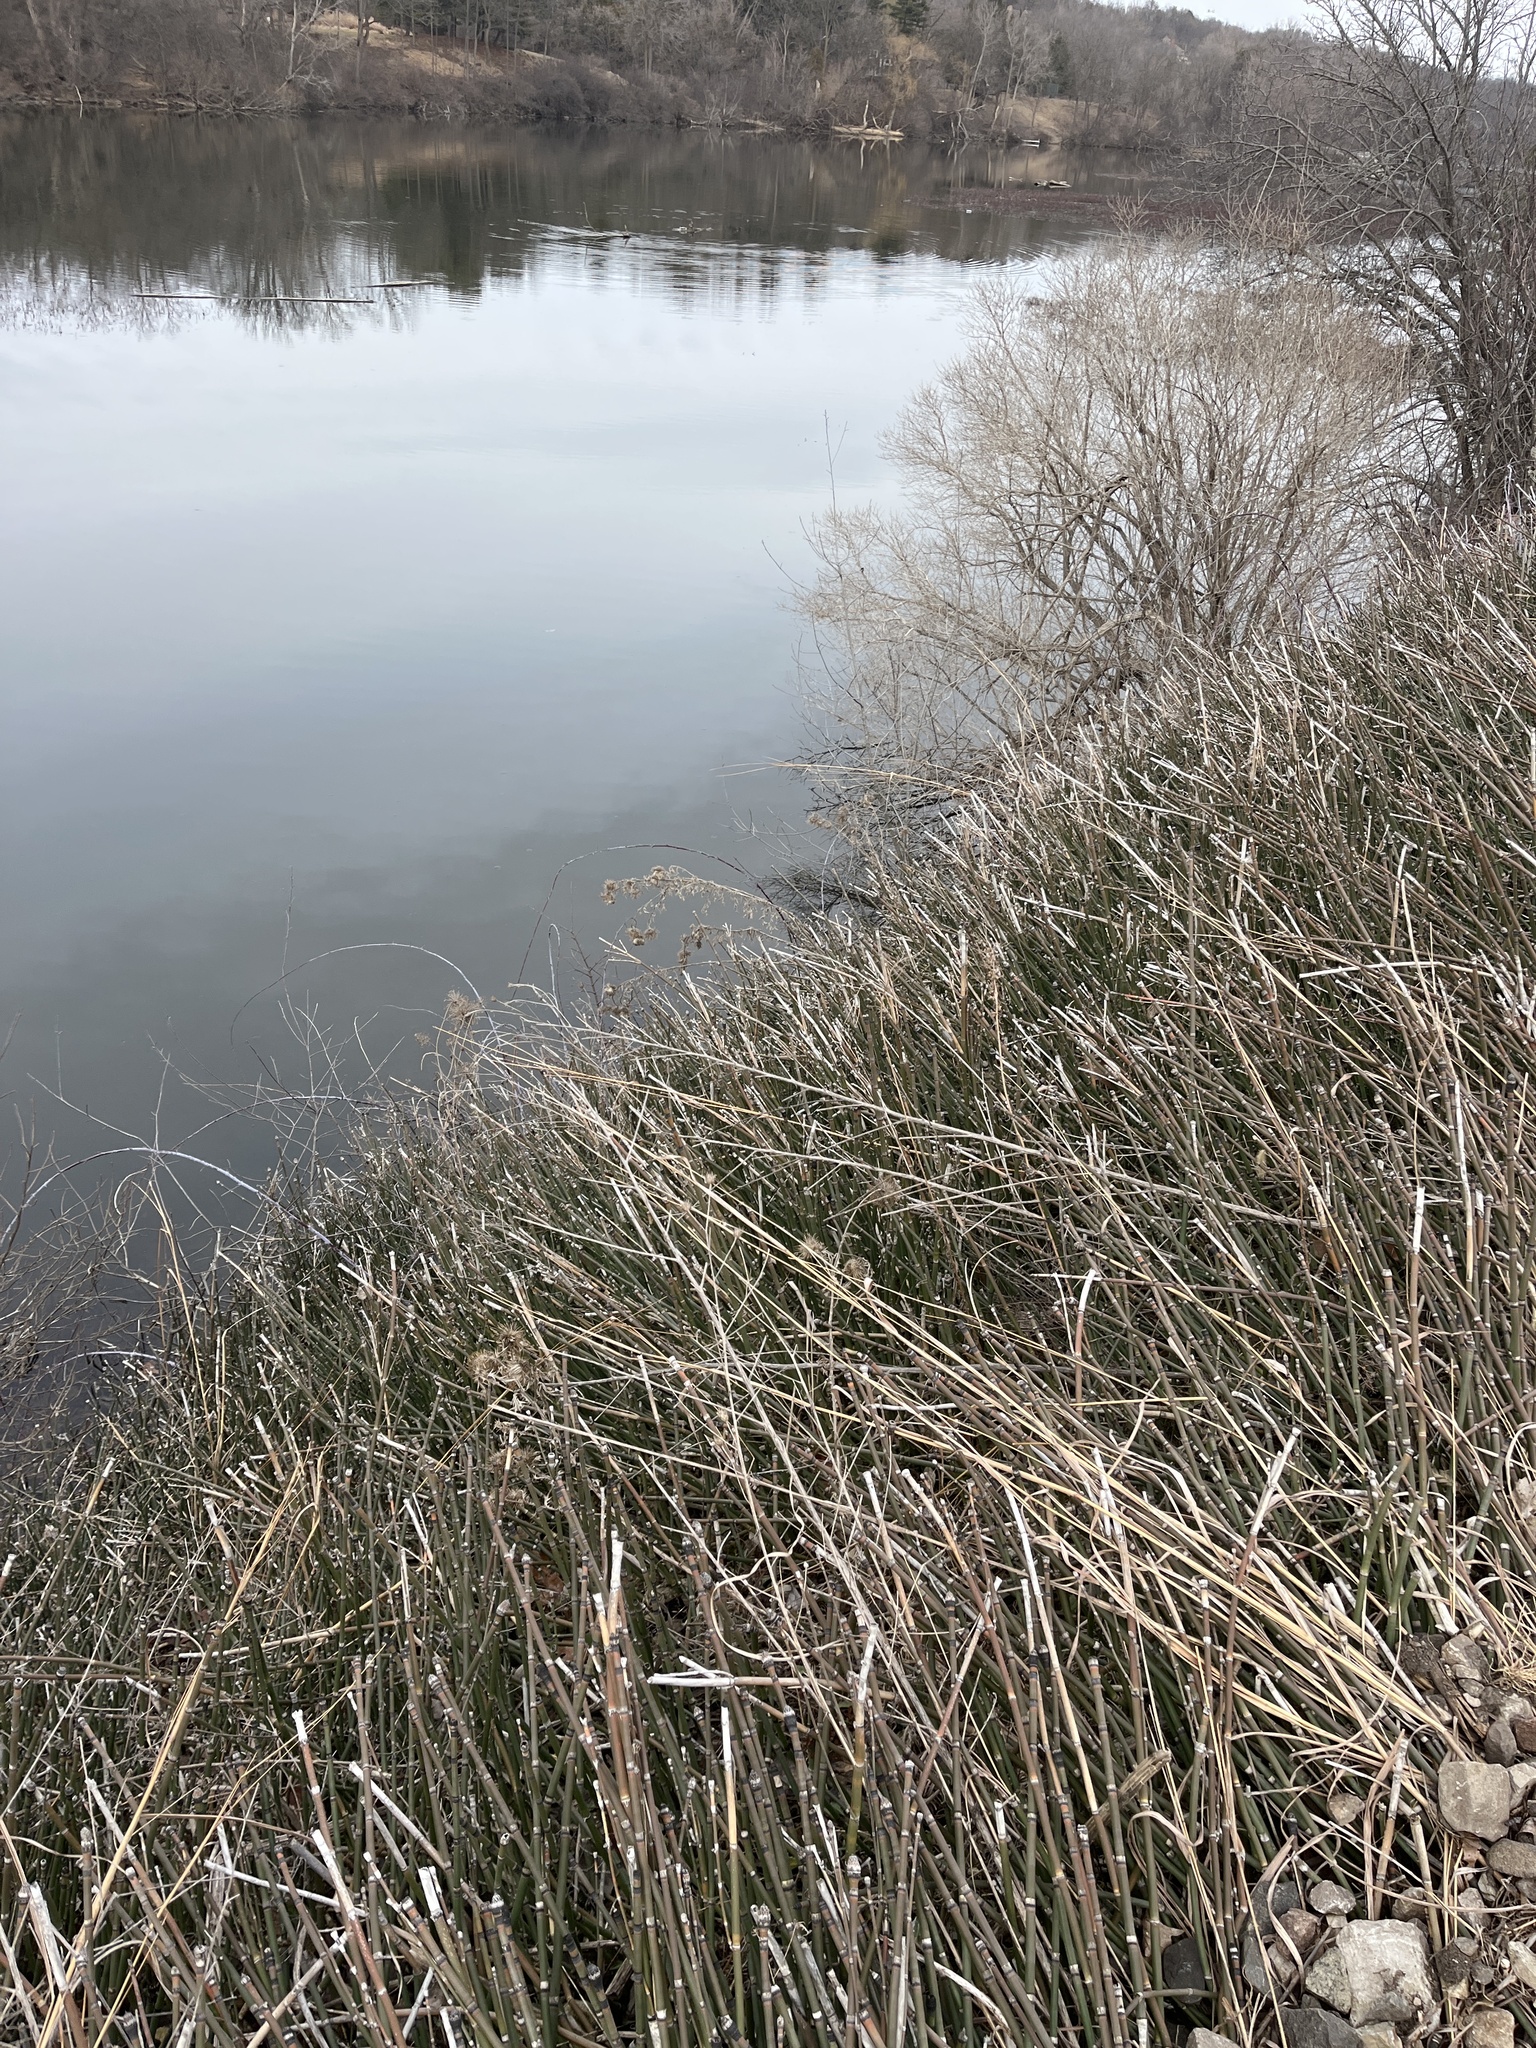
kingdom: Plantae
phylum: Tracheophyta
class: Polypodiopsida
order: Equisetales
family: Equisetaceae
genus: Equisetum
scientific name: Equisetum praealtum
